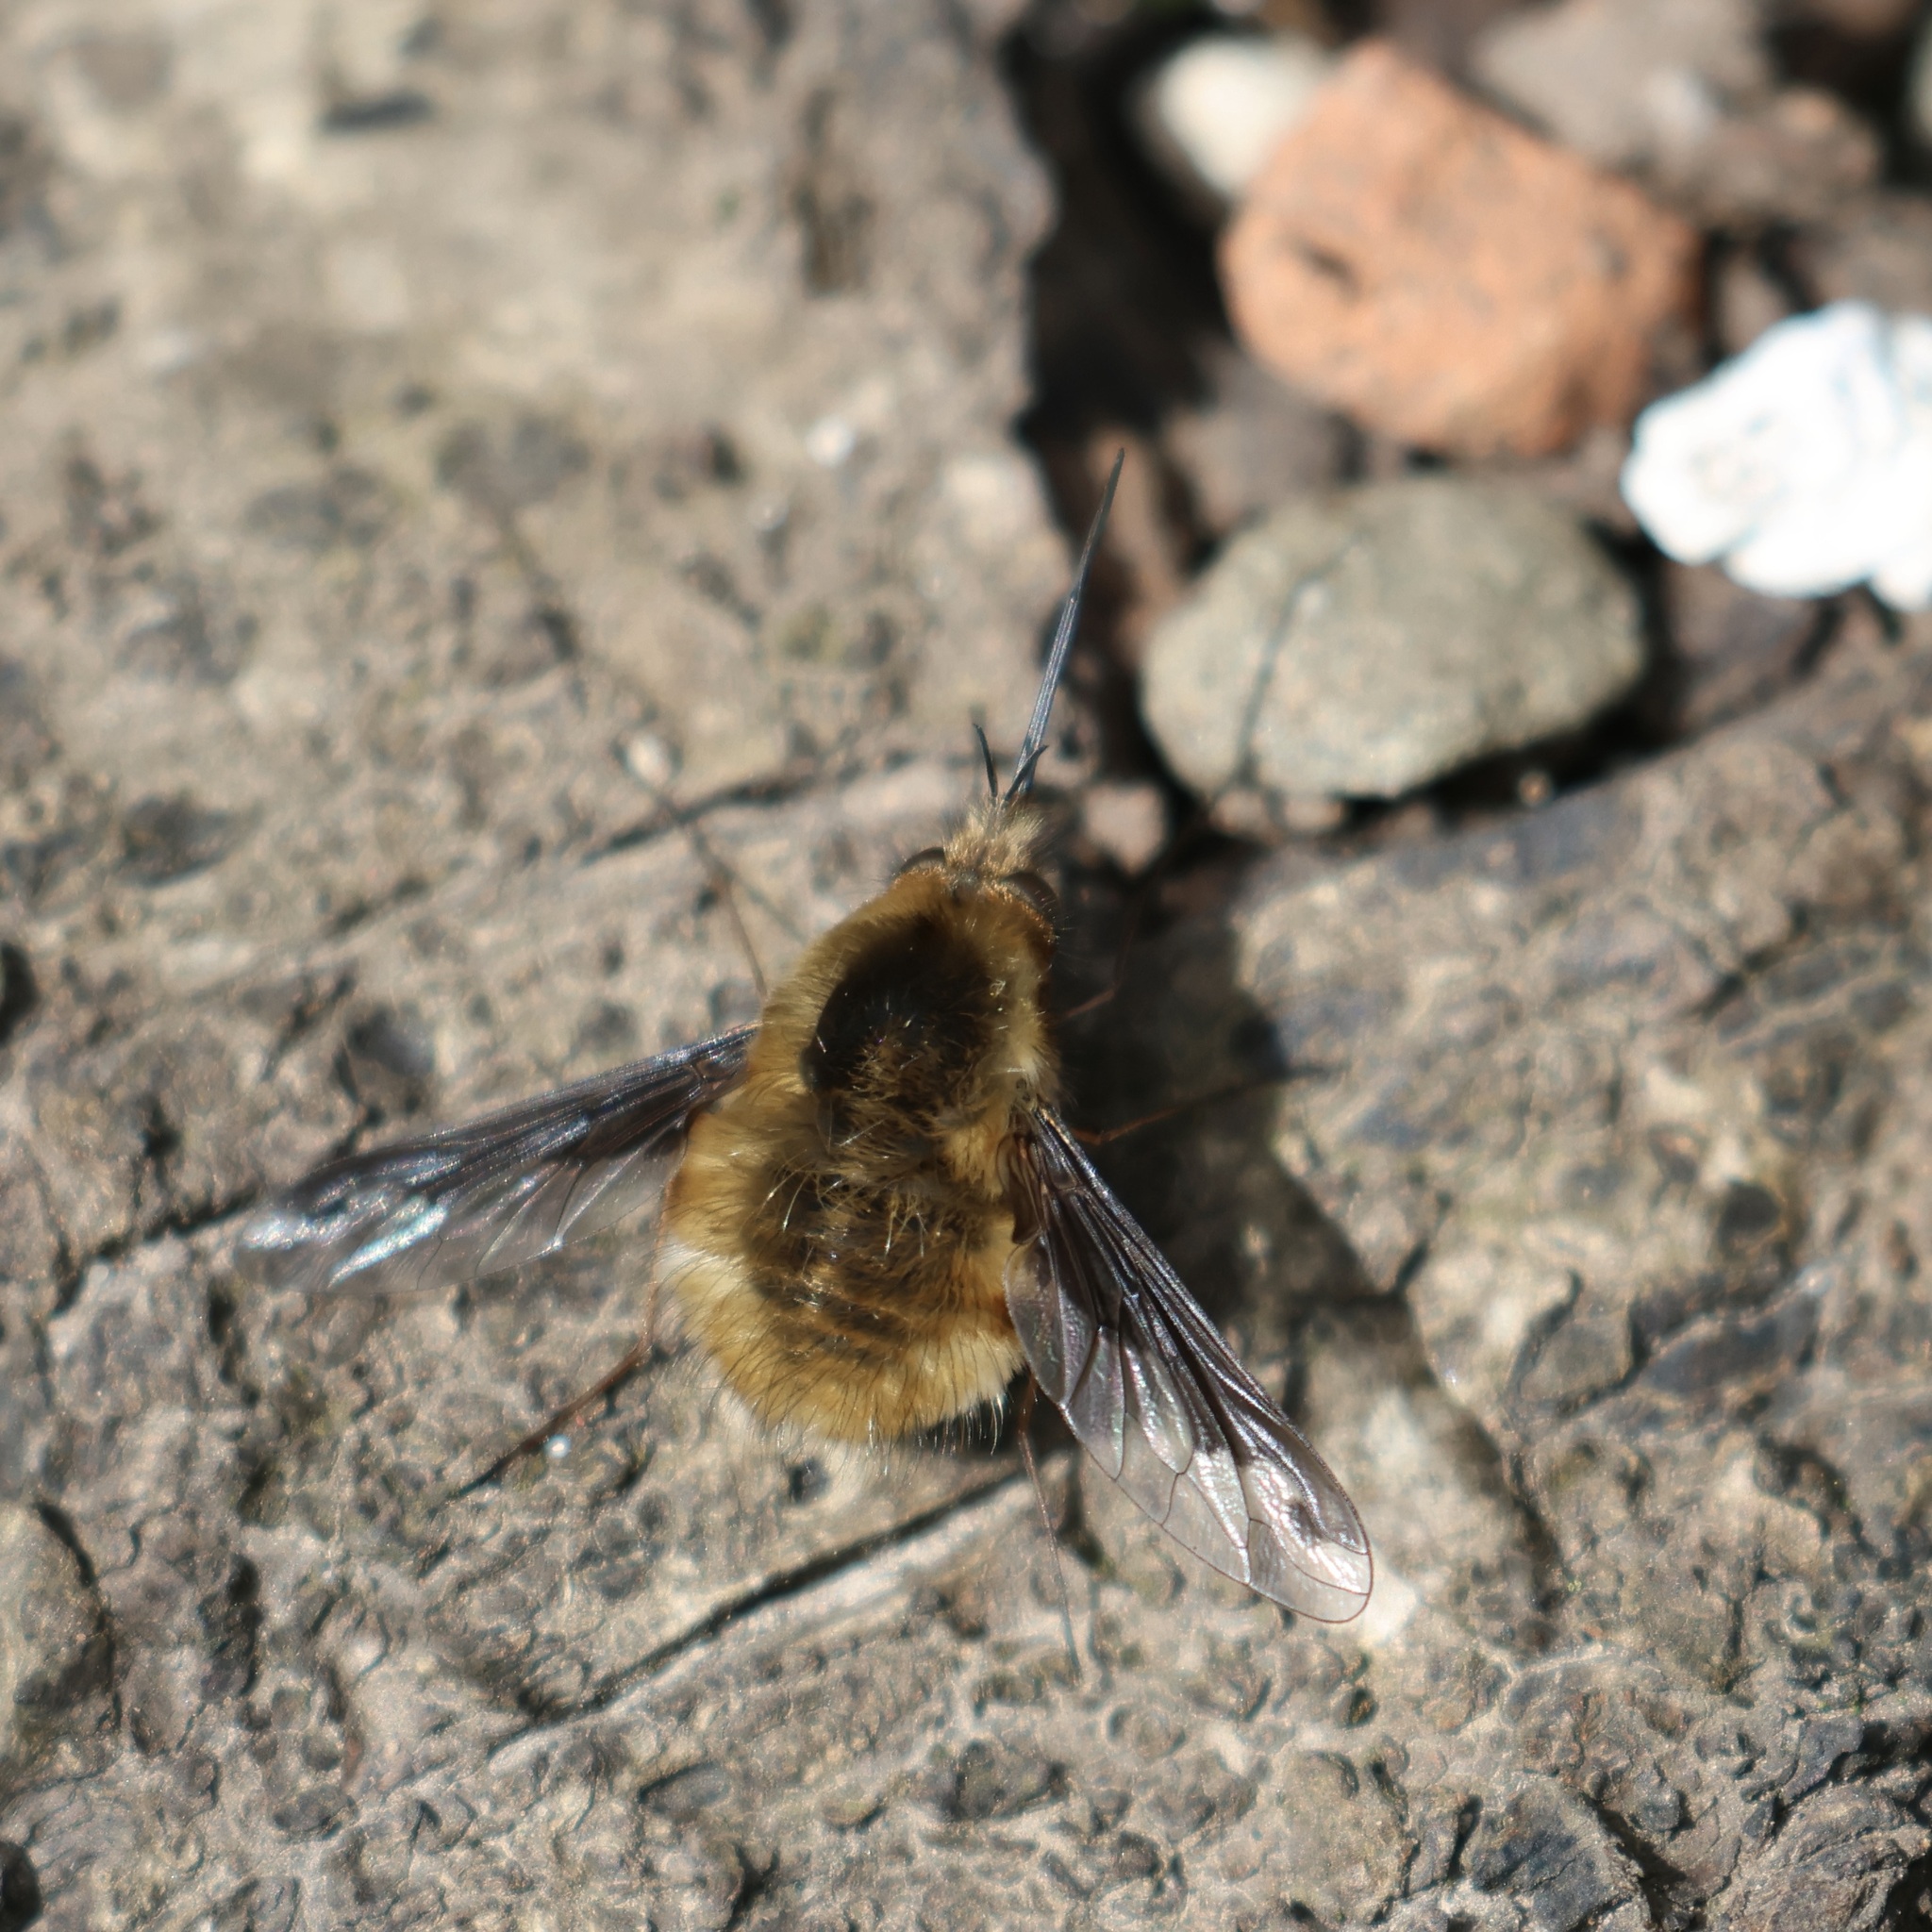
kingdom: Animalia
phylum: Arthropoda
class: Insecta
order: Diptera
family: Bombyliidae
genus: Bombylius
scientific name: Bombylius major
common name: Bee fly
